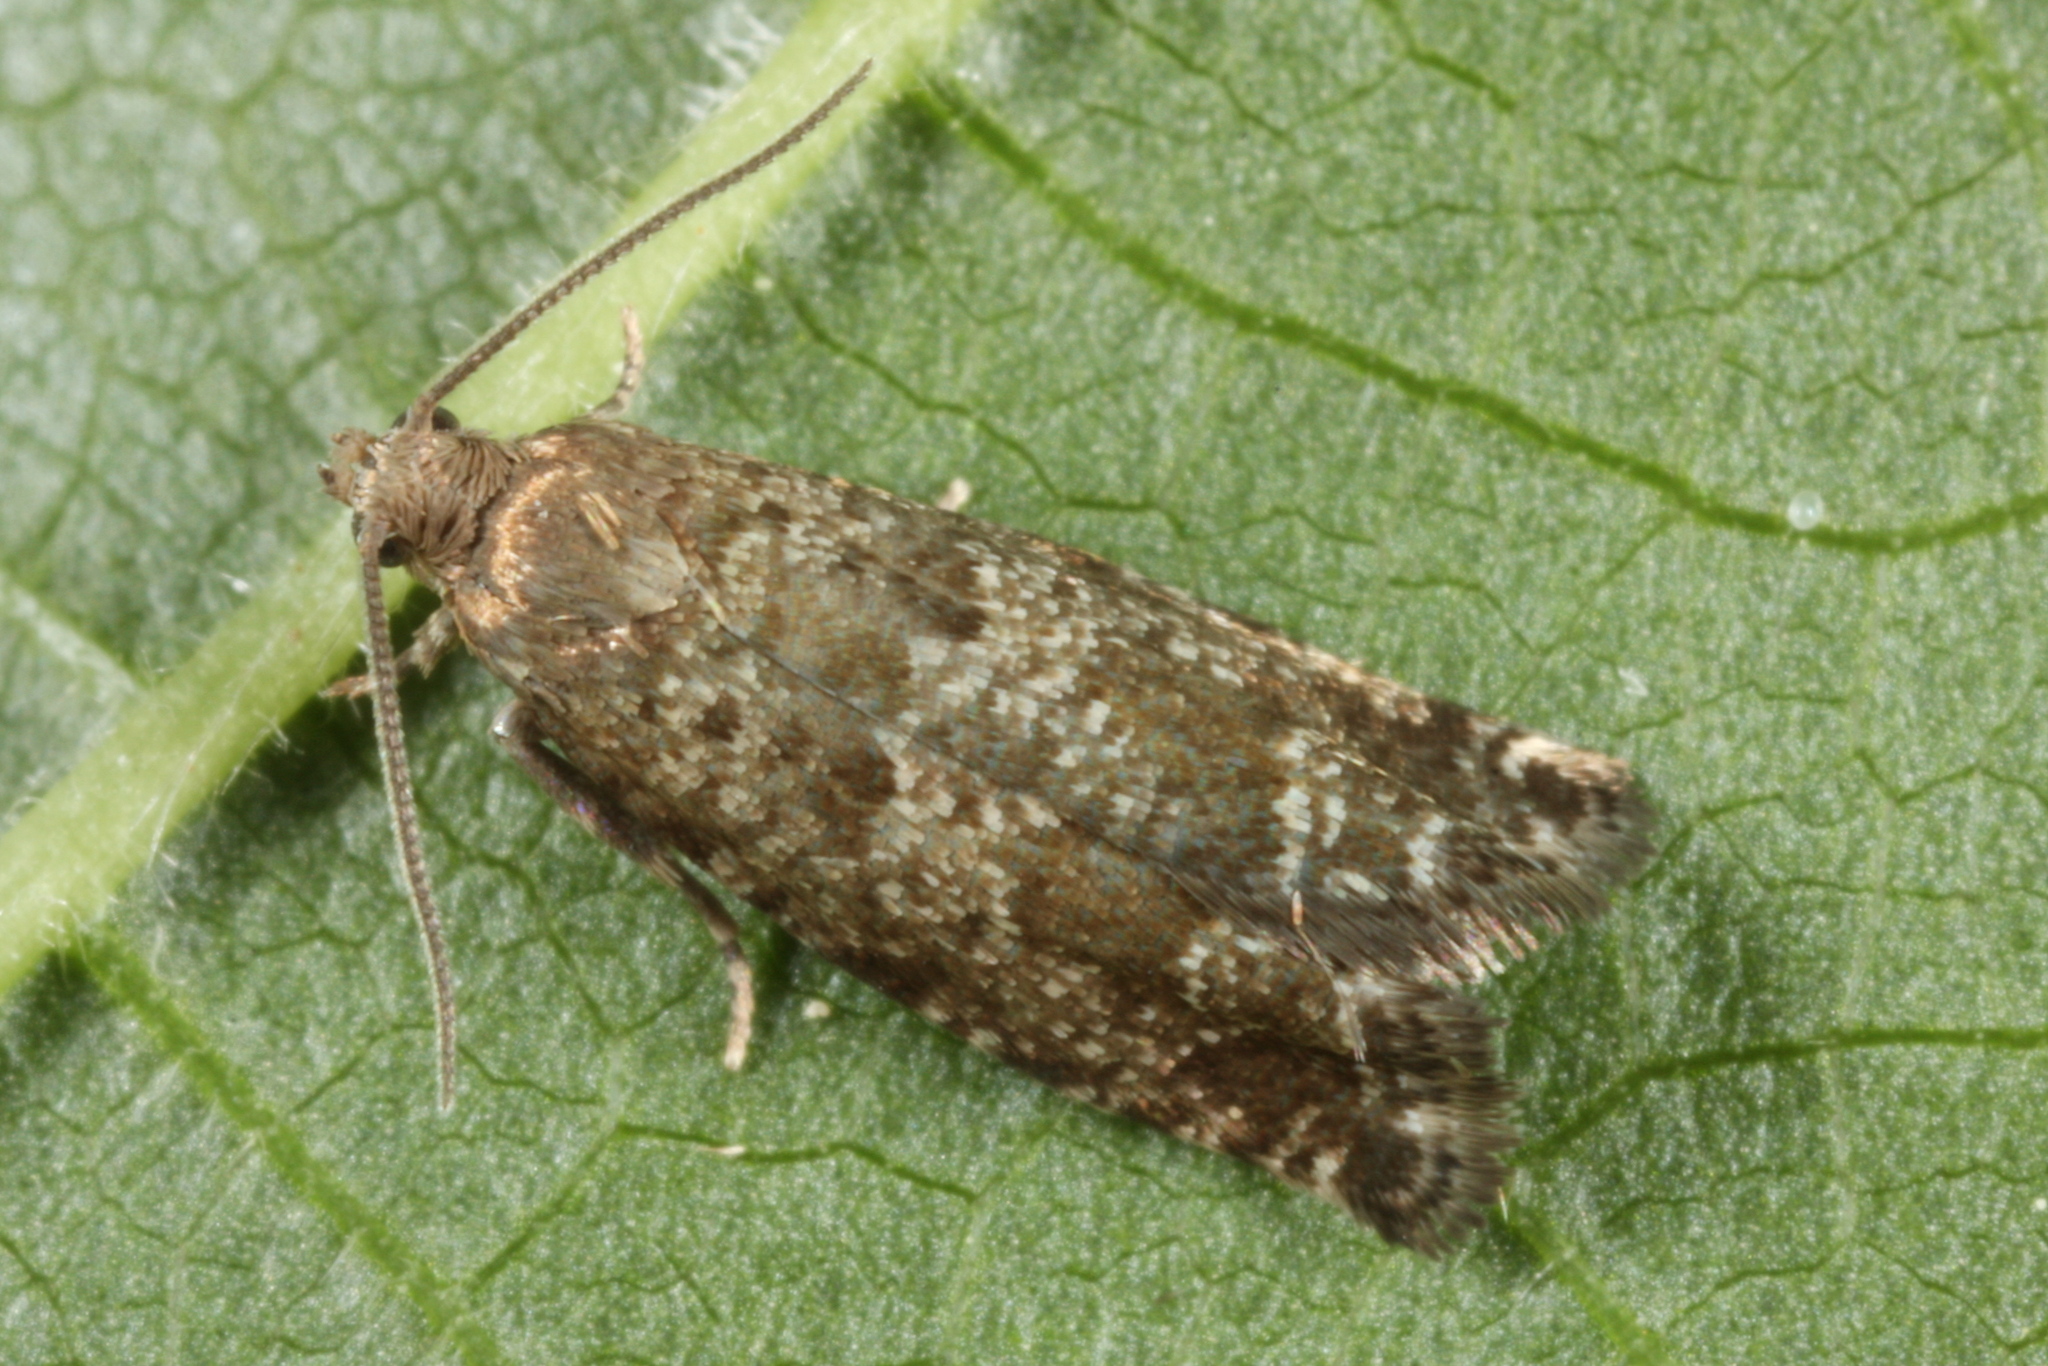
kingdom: Animalia
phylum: Arthropoda
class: Insecta
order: Lepidoptera
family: Tortricidae
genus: Epinotia
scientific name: Epinotia nanana
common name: Leaf roller
